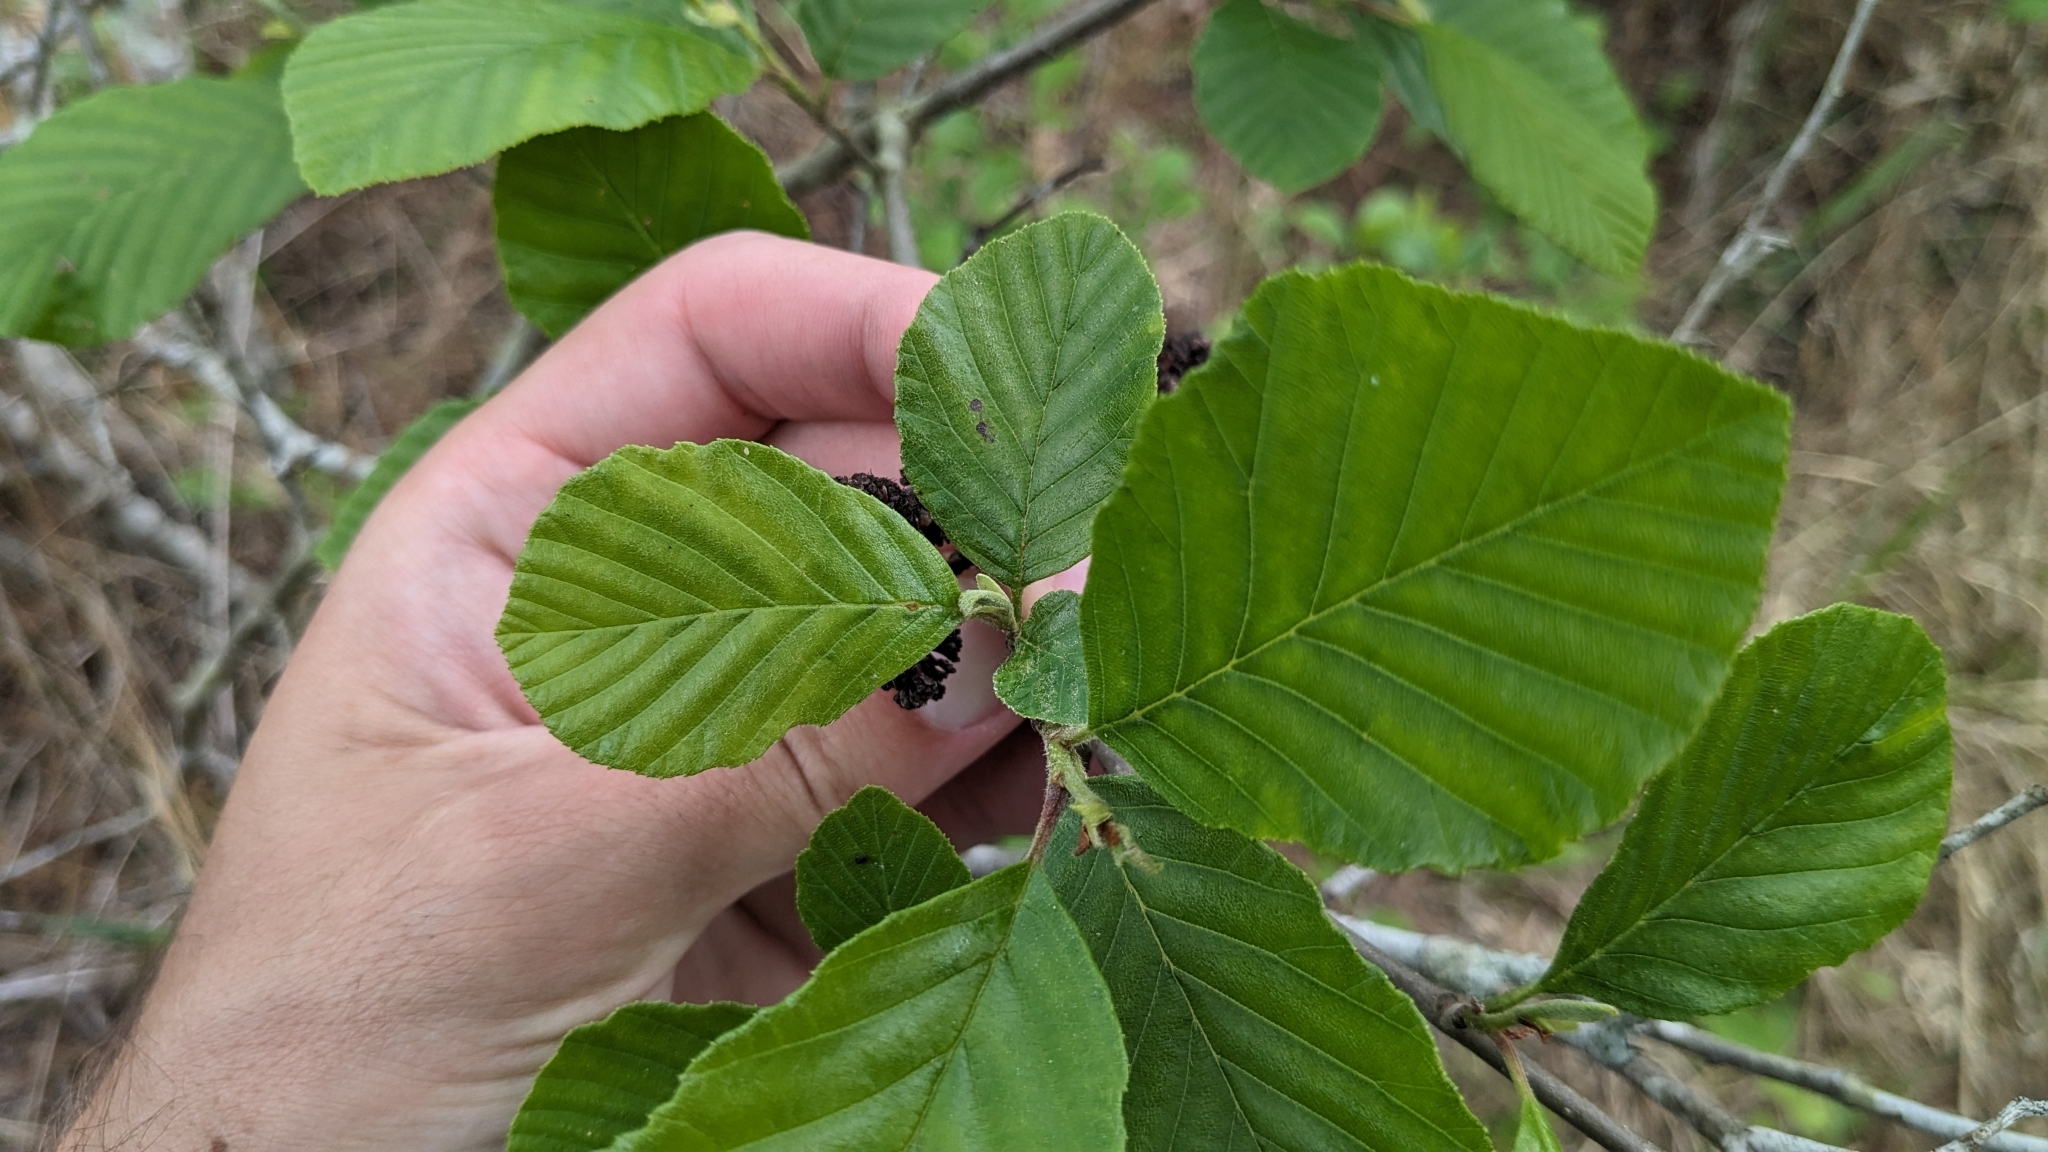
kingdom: Plantae
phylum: Tracheophyta
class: Magnoliopsida
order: Fagales
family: Betulaceae
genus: Alnus
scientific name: Alnus serrulata
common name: Hazel alder
